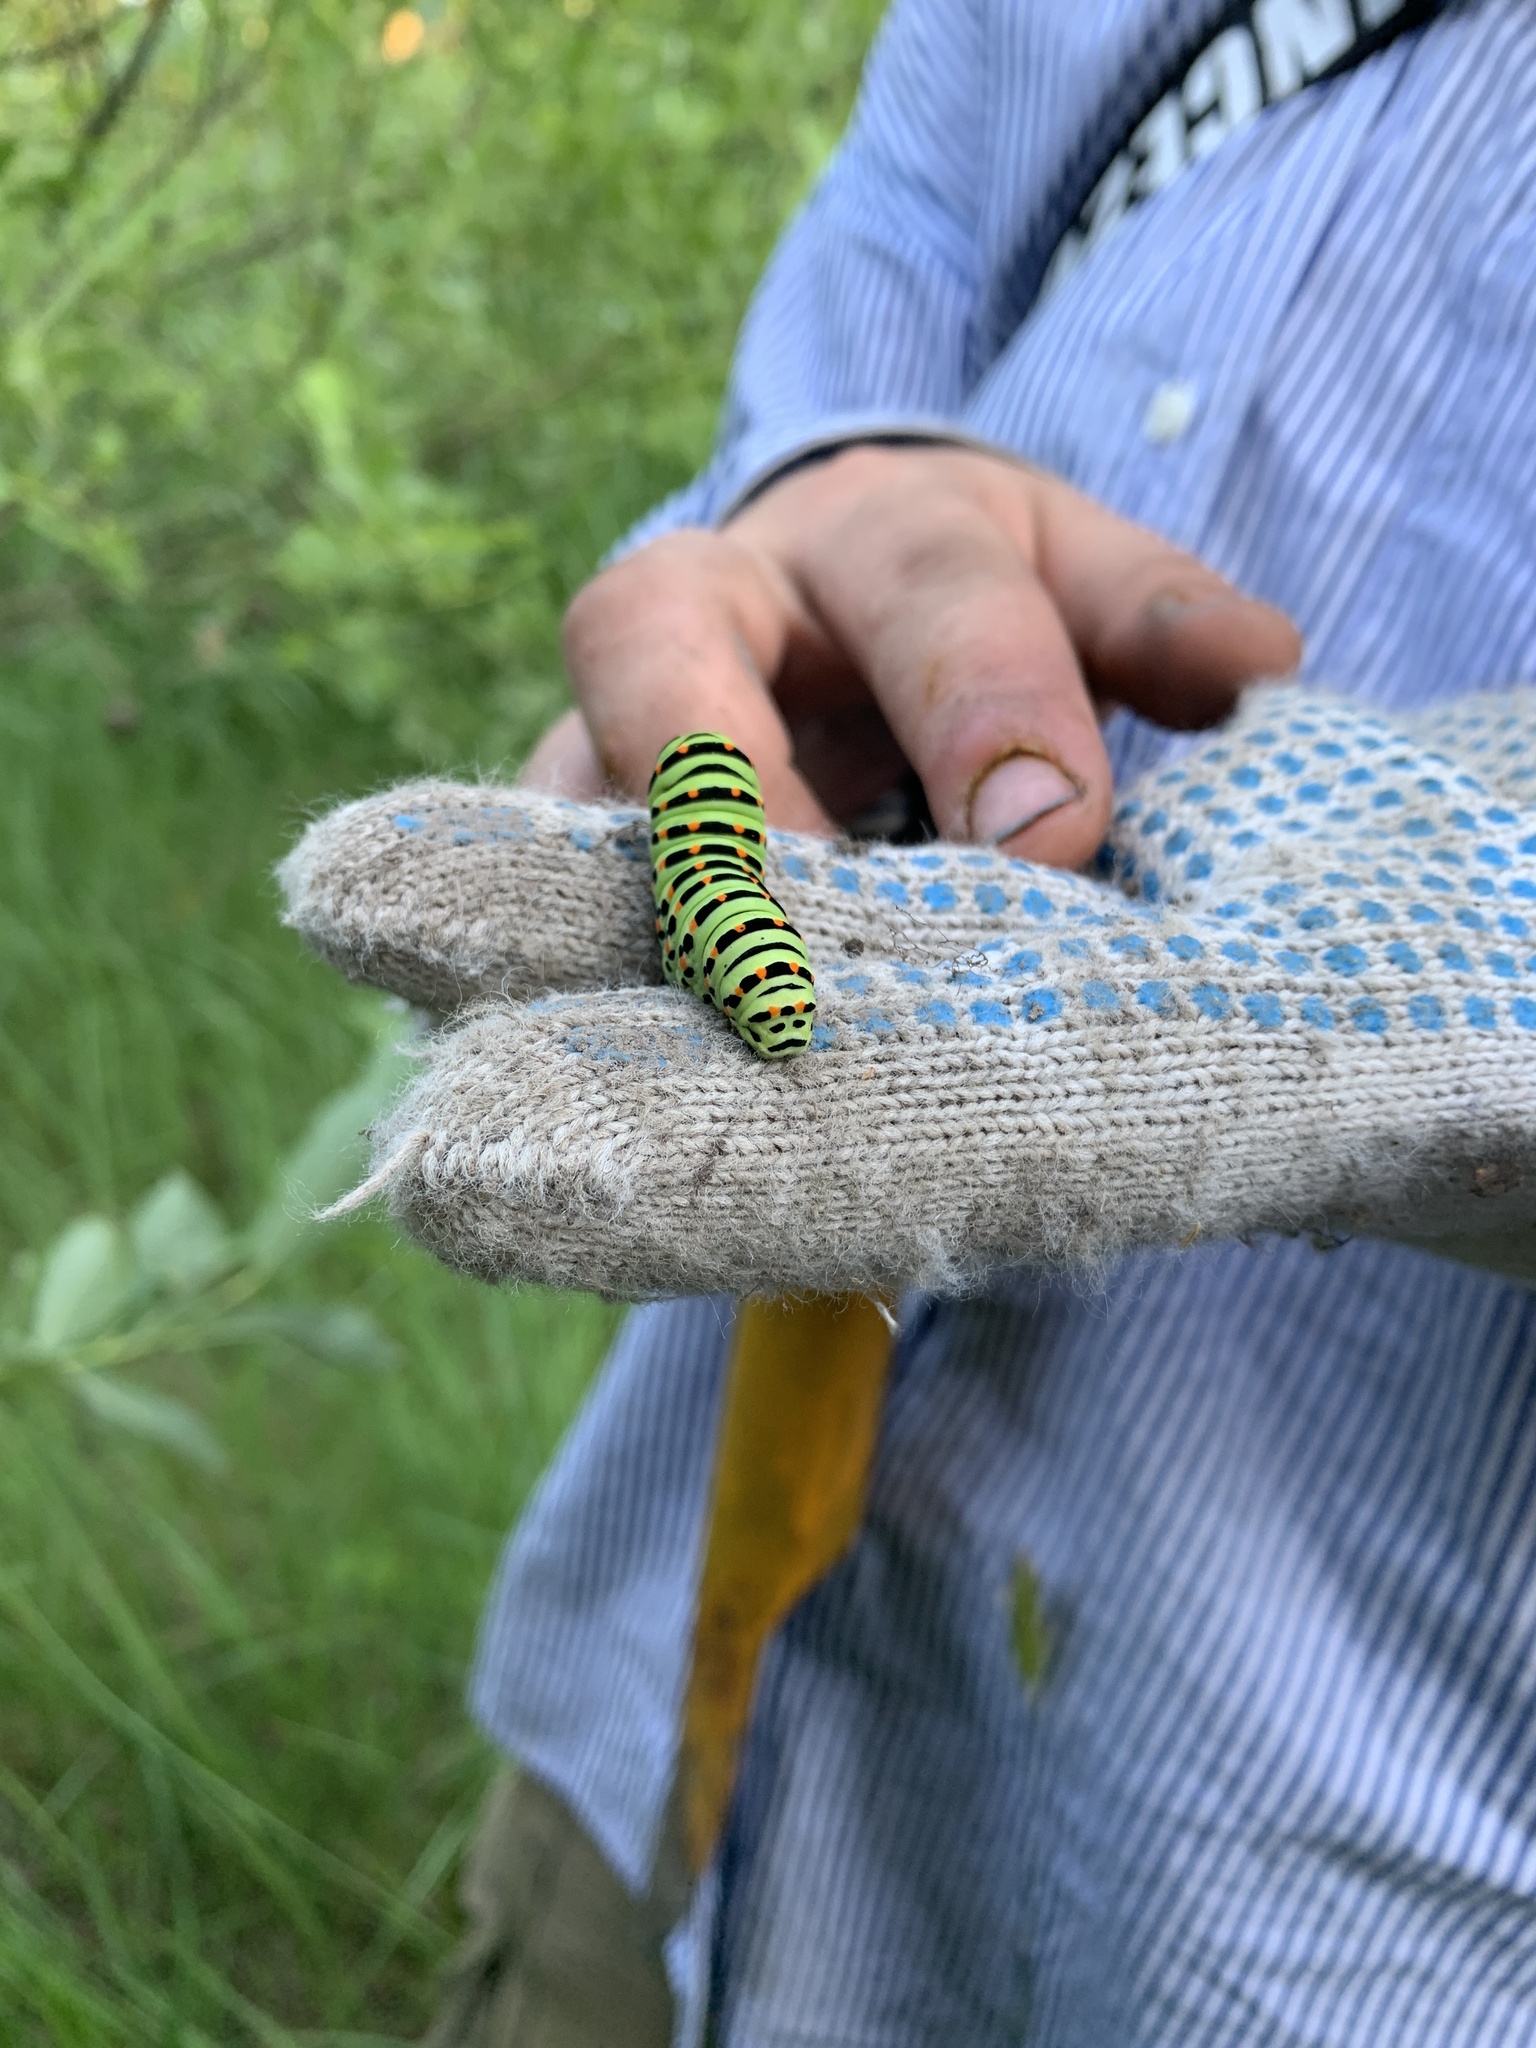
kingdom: Animalia
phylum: Arthropoda
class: Insecta
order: Lepidoptera
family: Papilionidae
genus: Papilio
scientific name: Papilio machaon
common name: Swallowtail
